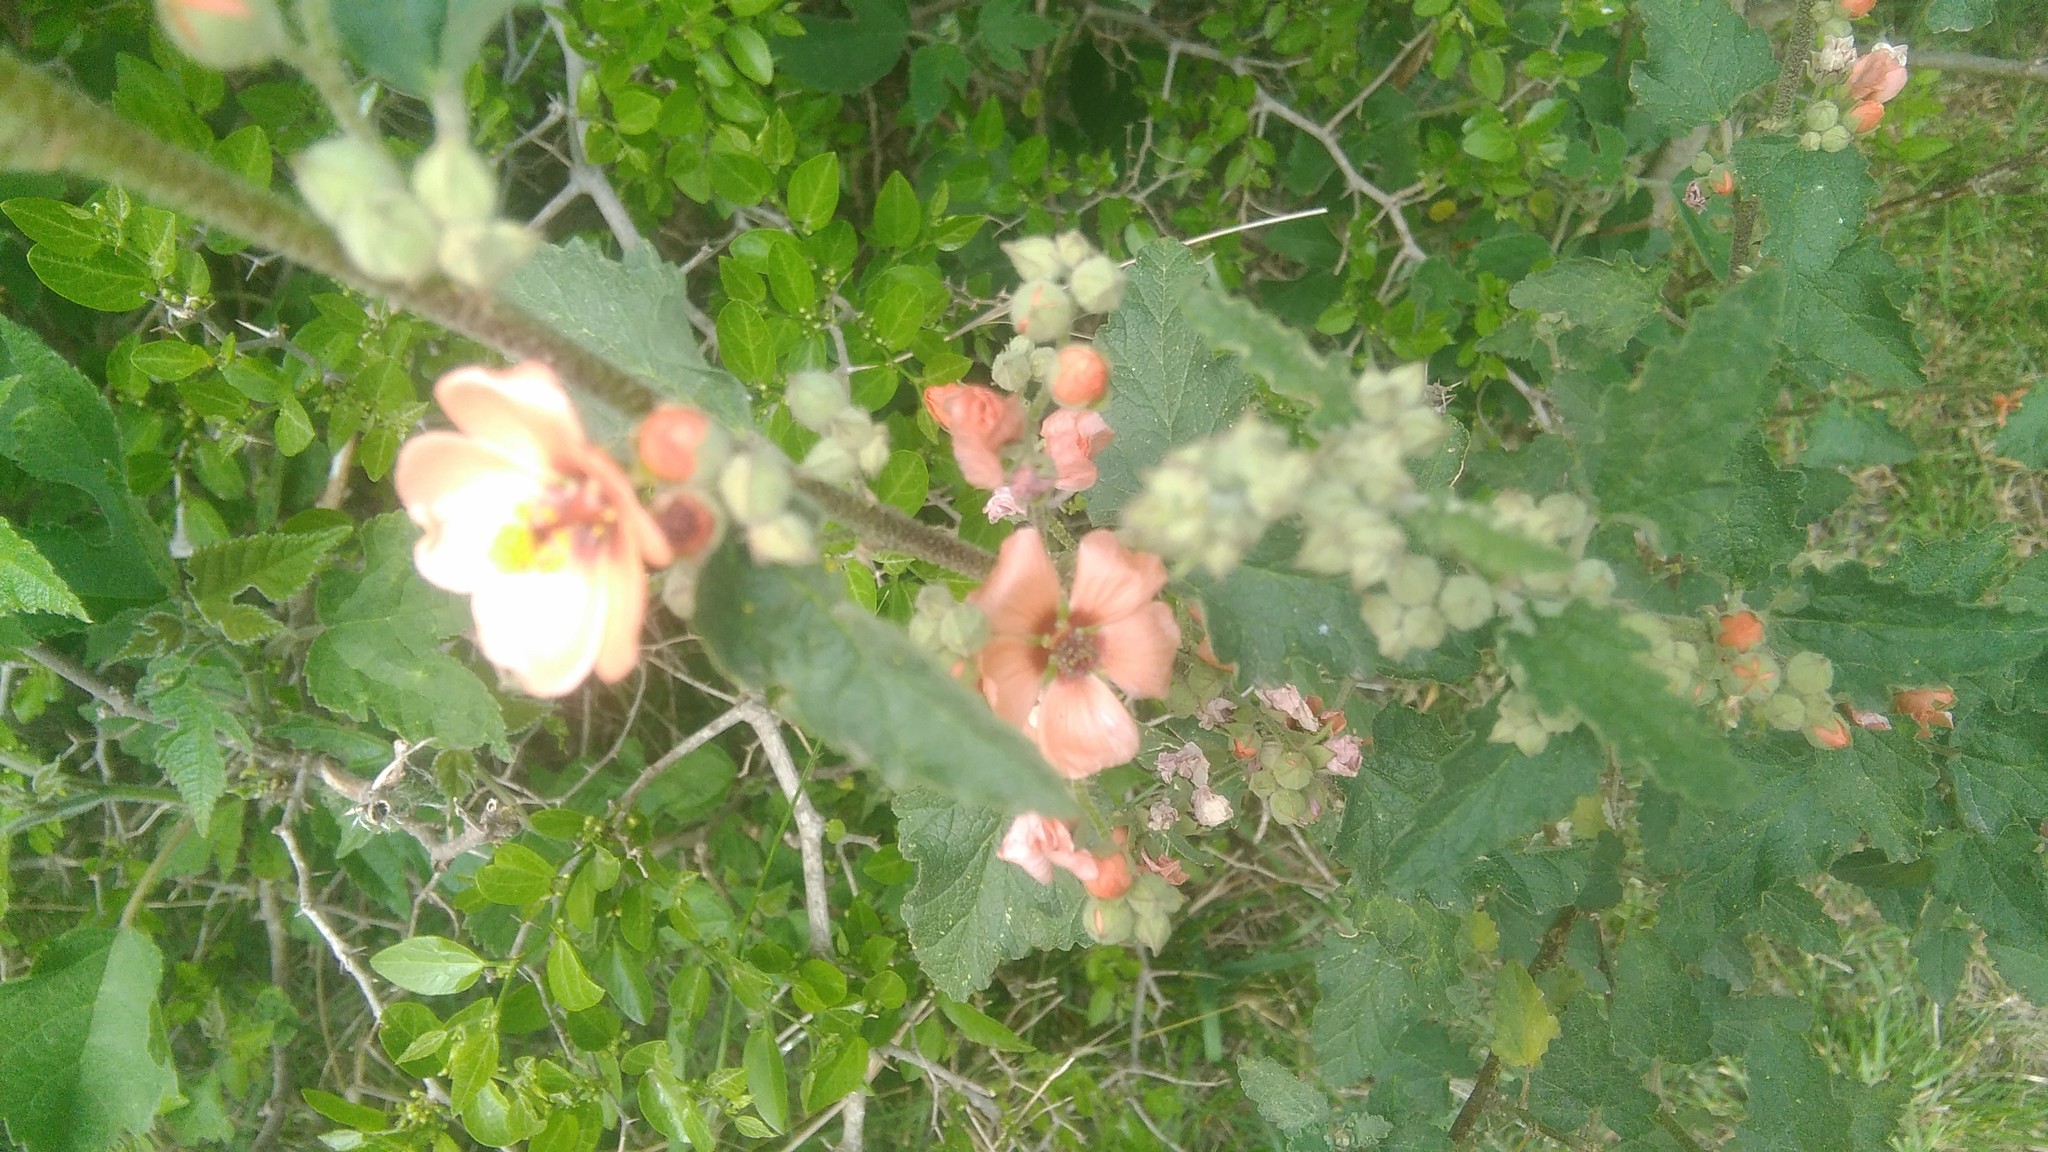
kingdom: Plantae
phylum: Tracheophyta
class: Magnoliopsida
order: Malvales
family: Malvaceae
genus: Sphaeralcea
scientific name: Sphaeralcea bonariensis
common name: Latin globemallow
